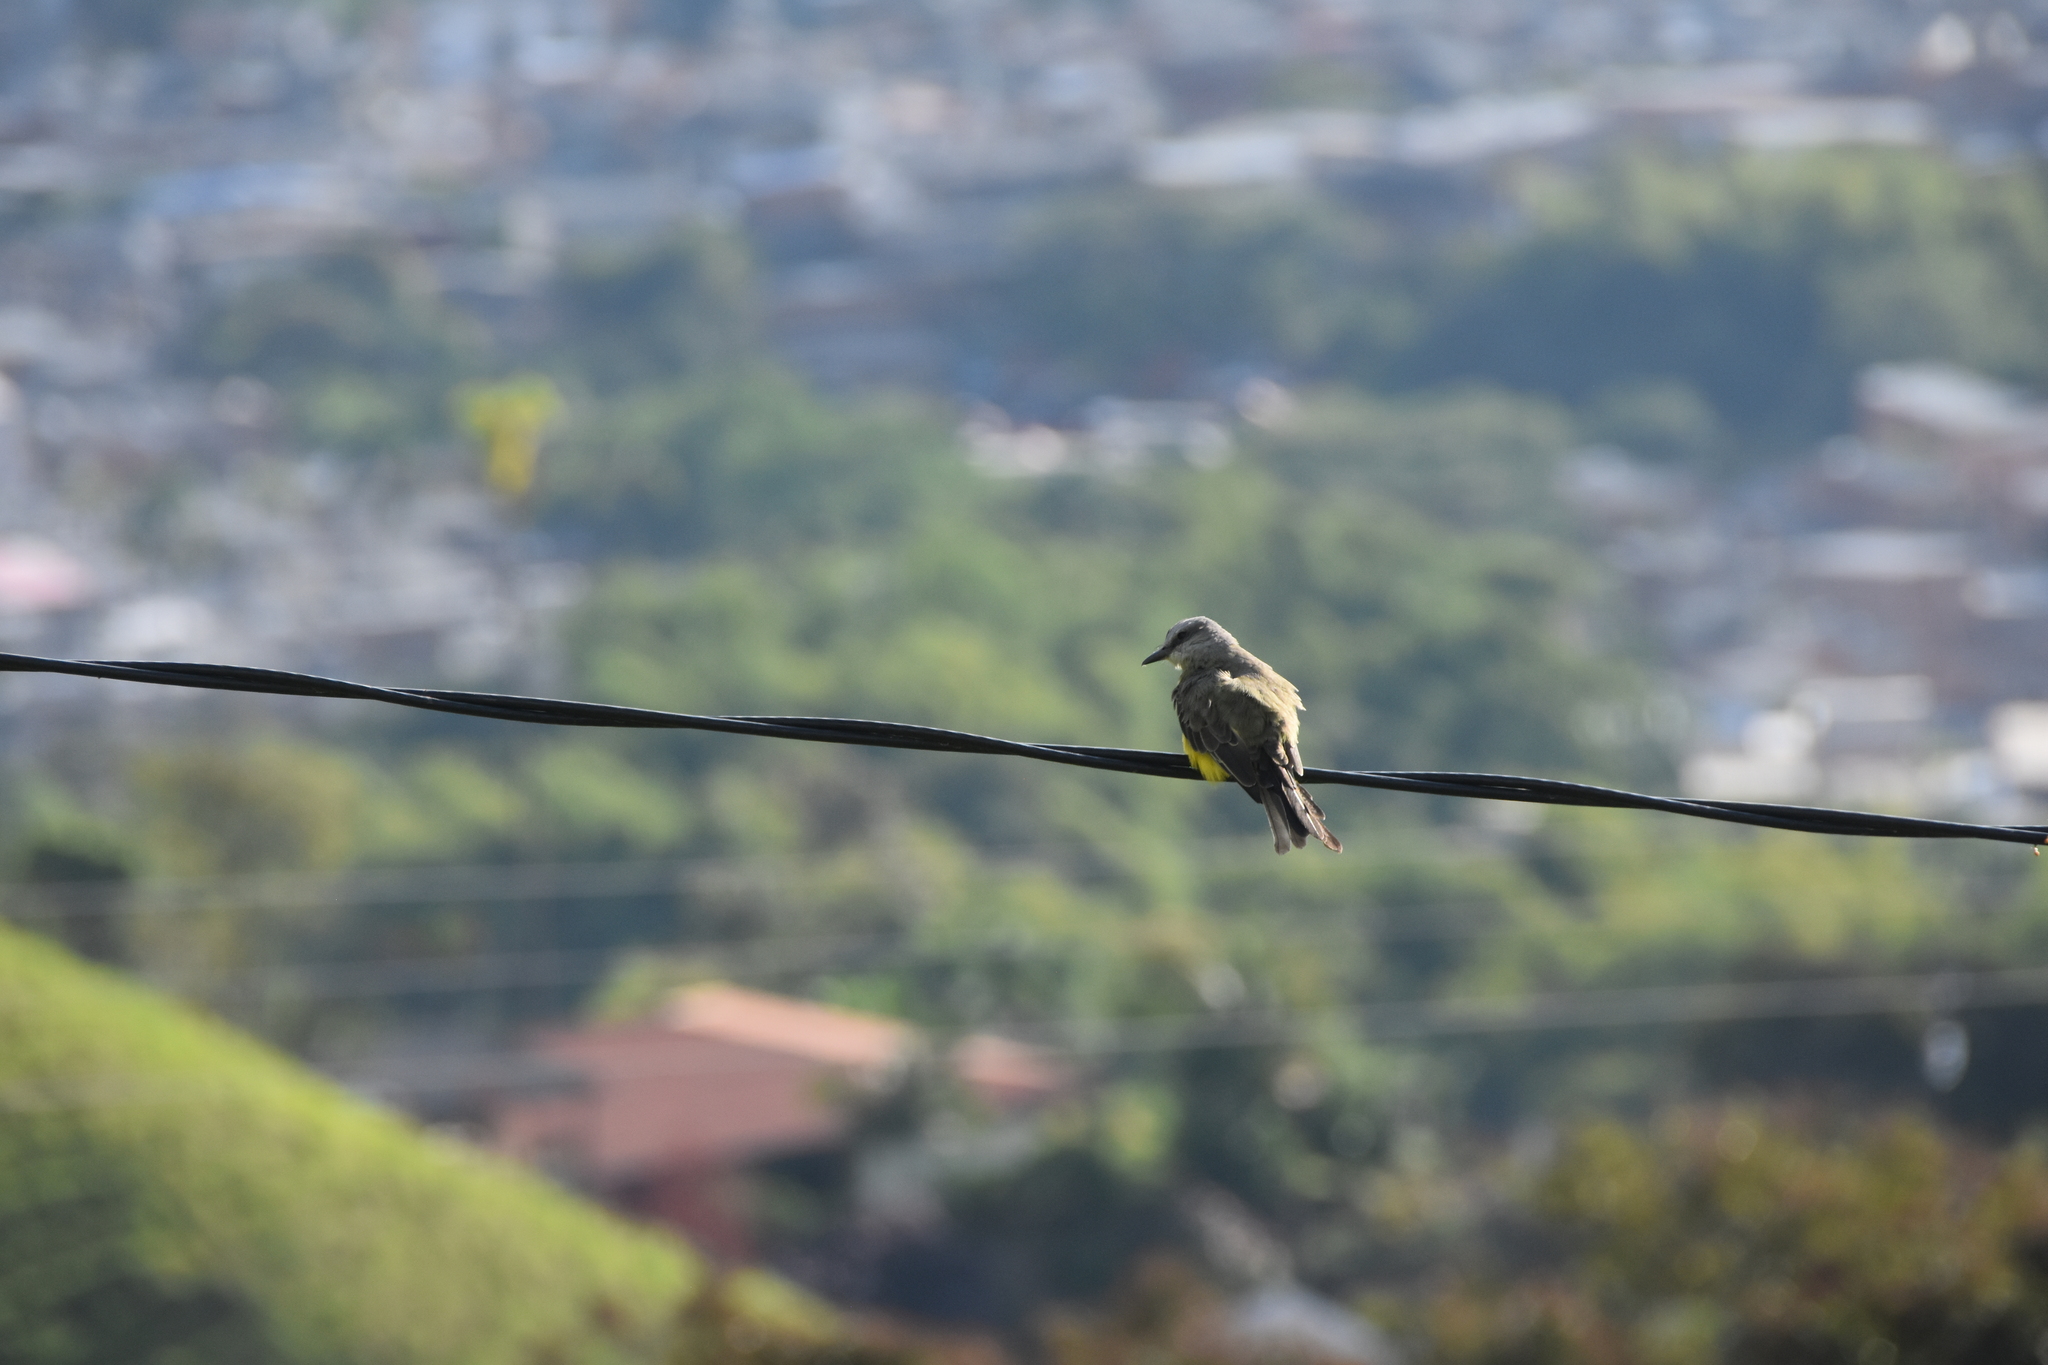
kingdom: Animalia
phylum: Chordata
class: Aves
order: Passeriformes
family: Tyrannidae
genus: Tyrannus
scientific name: Tyrannus melancholicus
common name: Tropical kingbird
